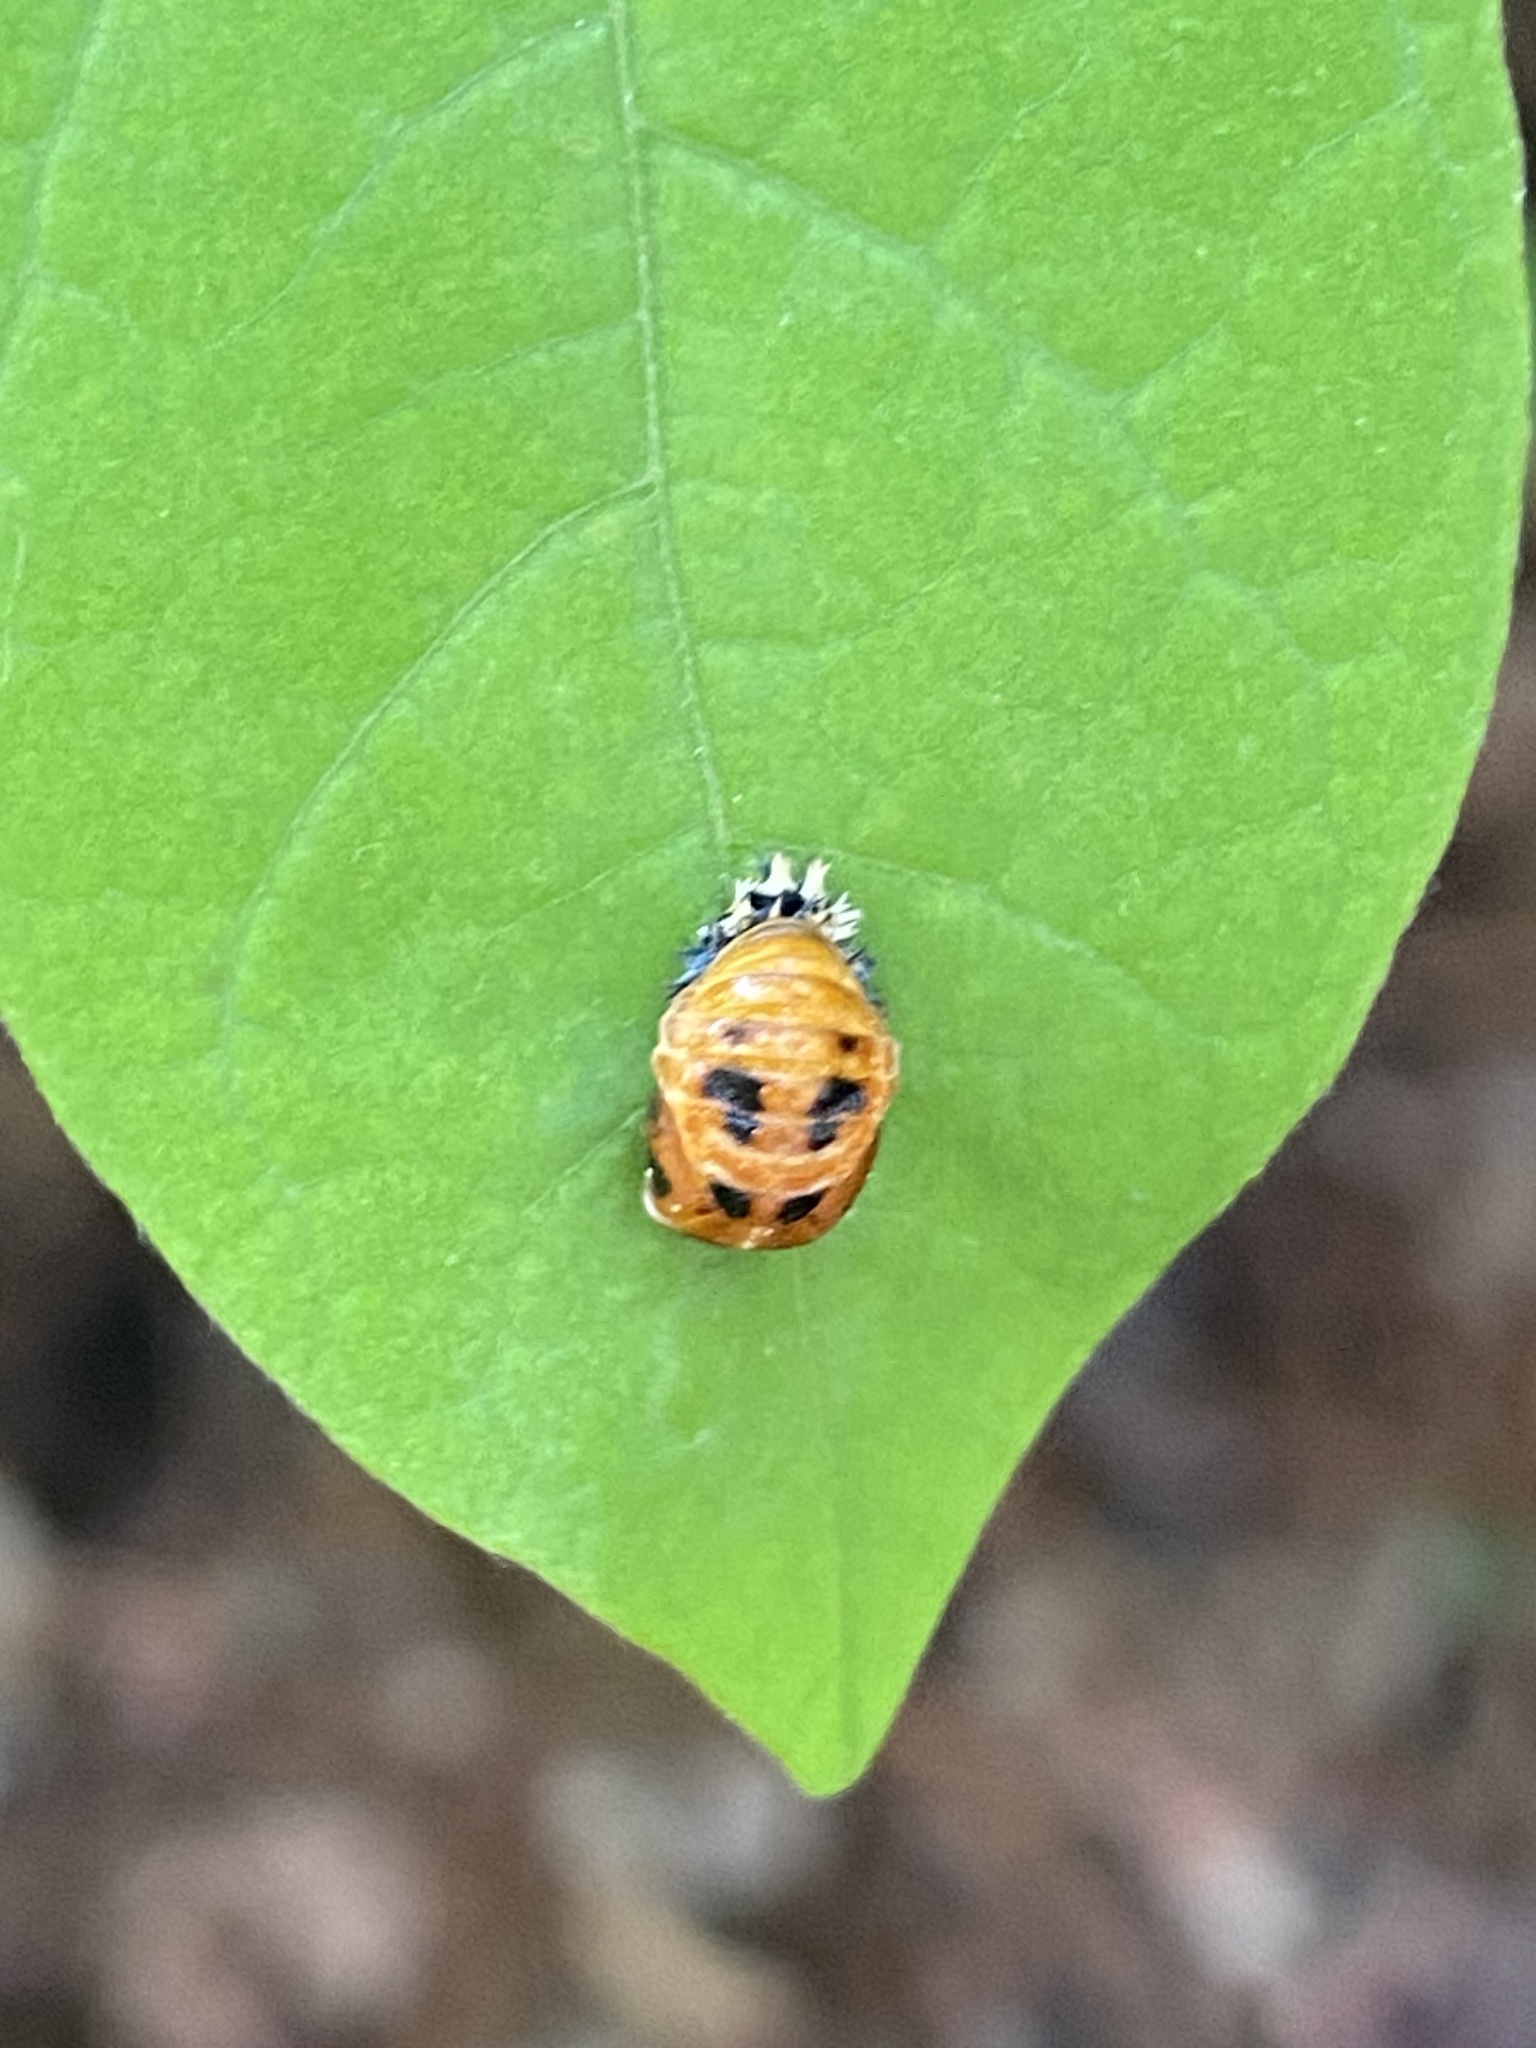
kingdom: Animalia
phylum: Arthropoda
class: Insecta
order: Coleoptera
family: Coccinellidae
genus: Harmonia
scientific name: Harmonia axyridis
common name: Harlequin ladybird
